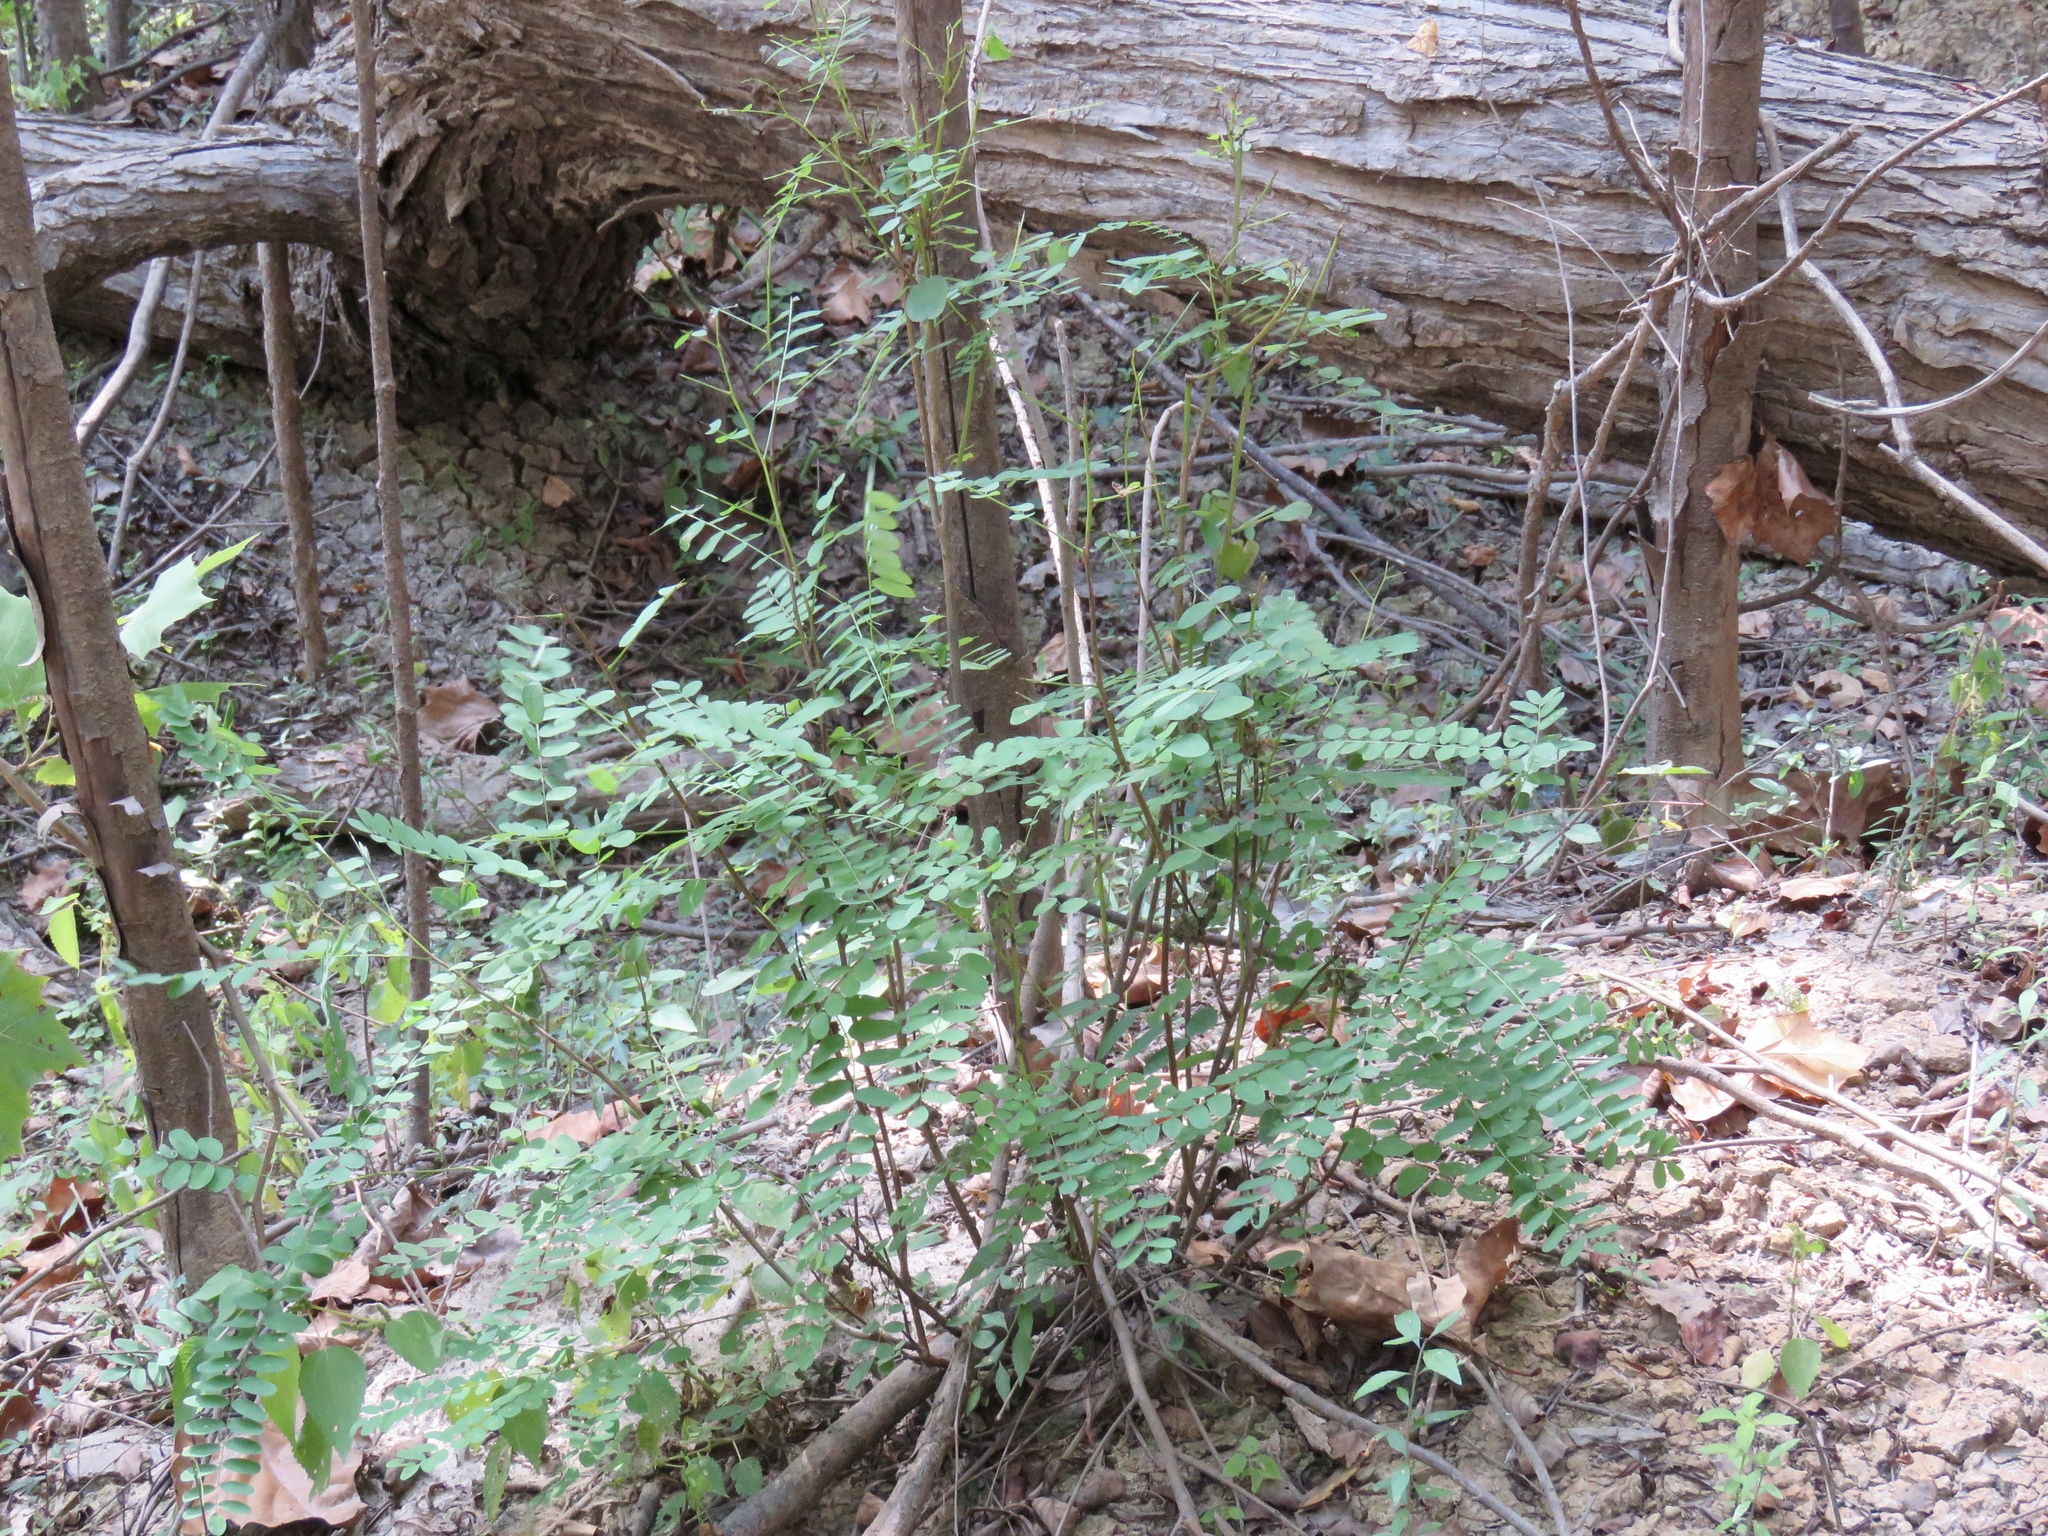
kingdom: Plantae
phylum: Tracheophyta
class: Magnoliopsida
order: Fabales
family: Fabaceae
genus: Gleditsia
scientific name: Gleditsia triacanthos
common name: Common honeylocust
